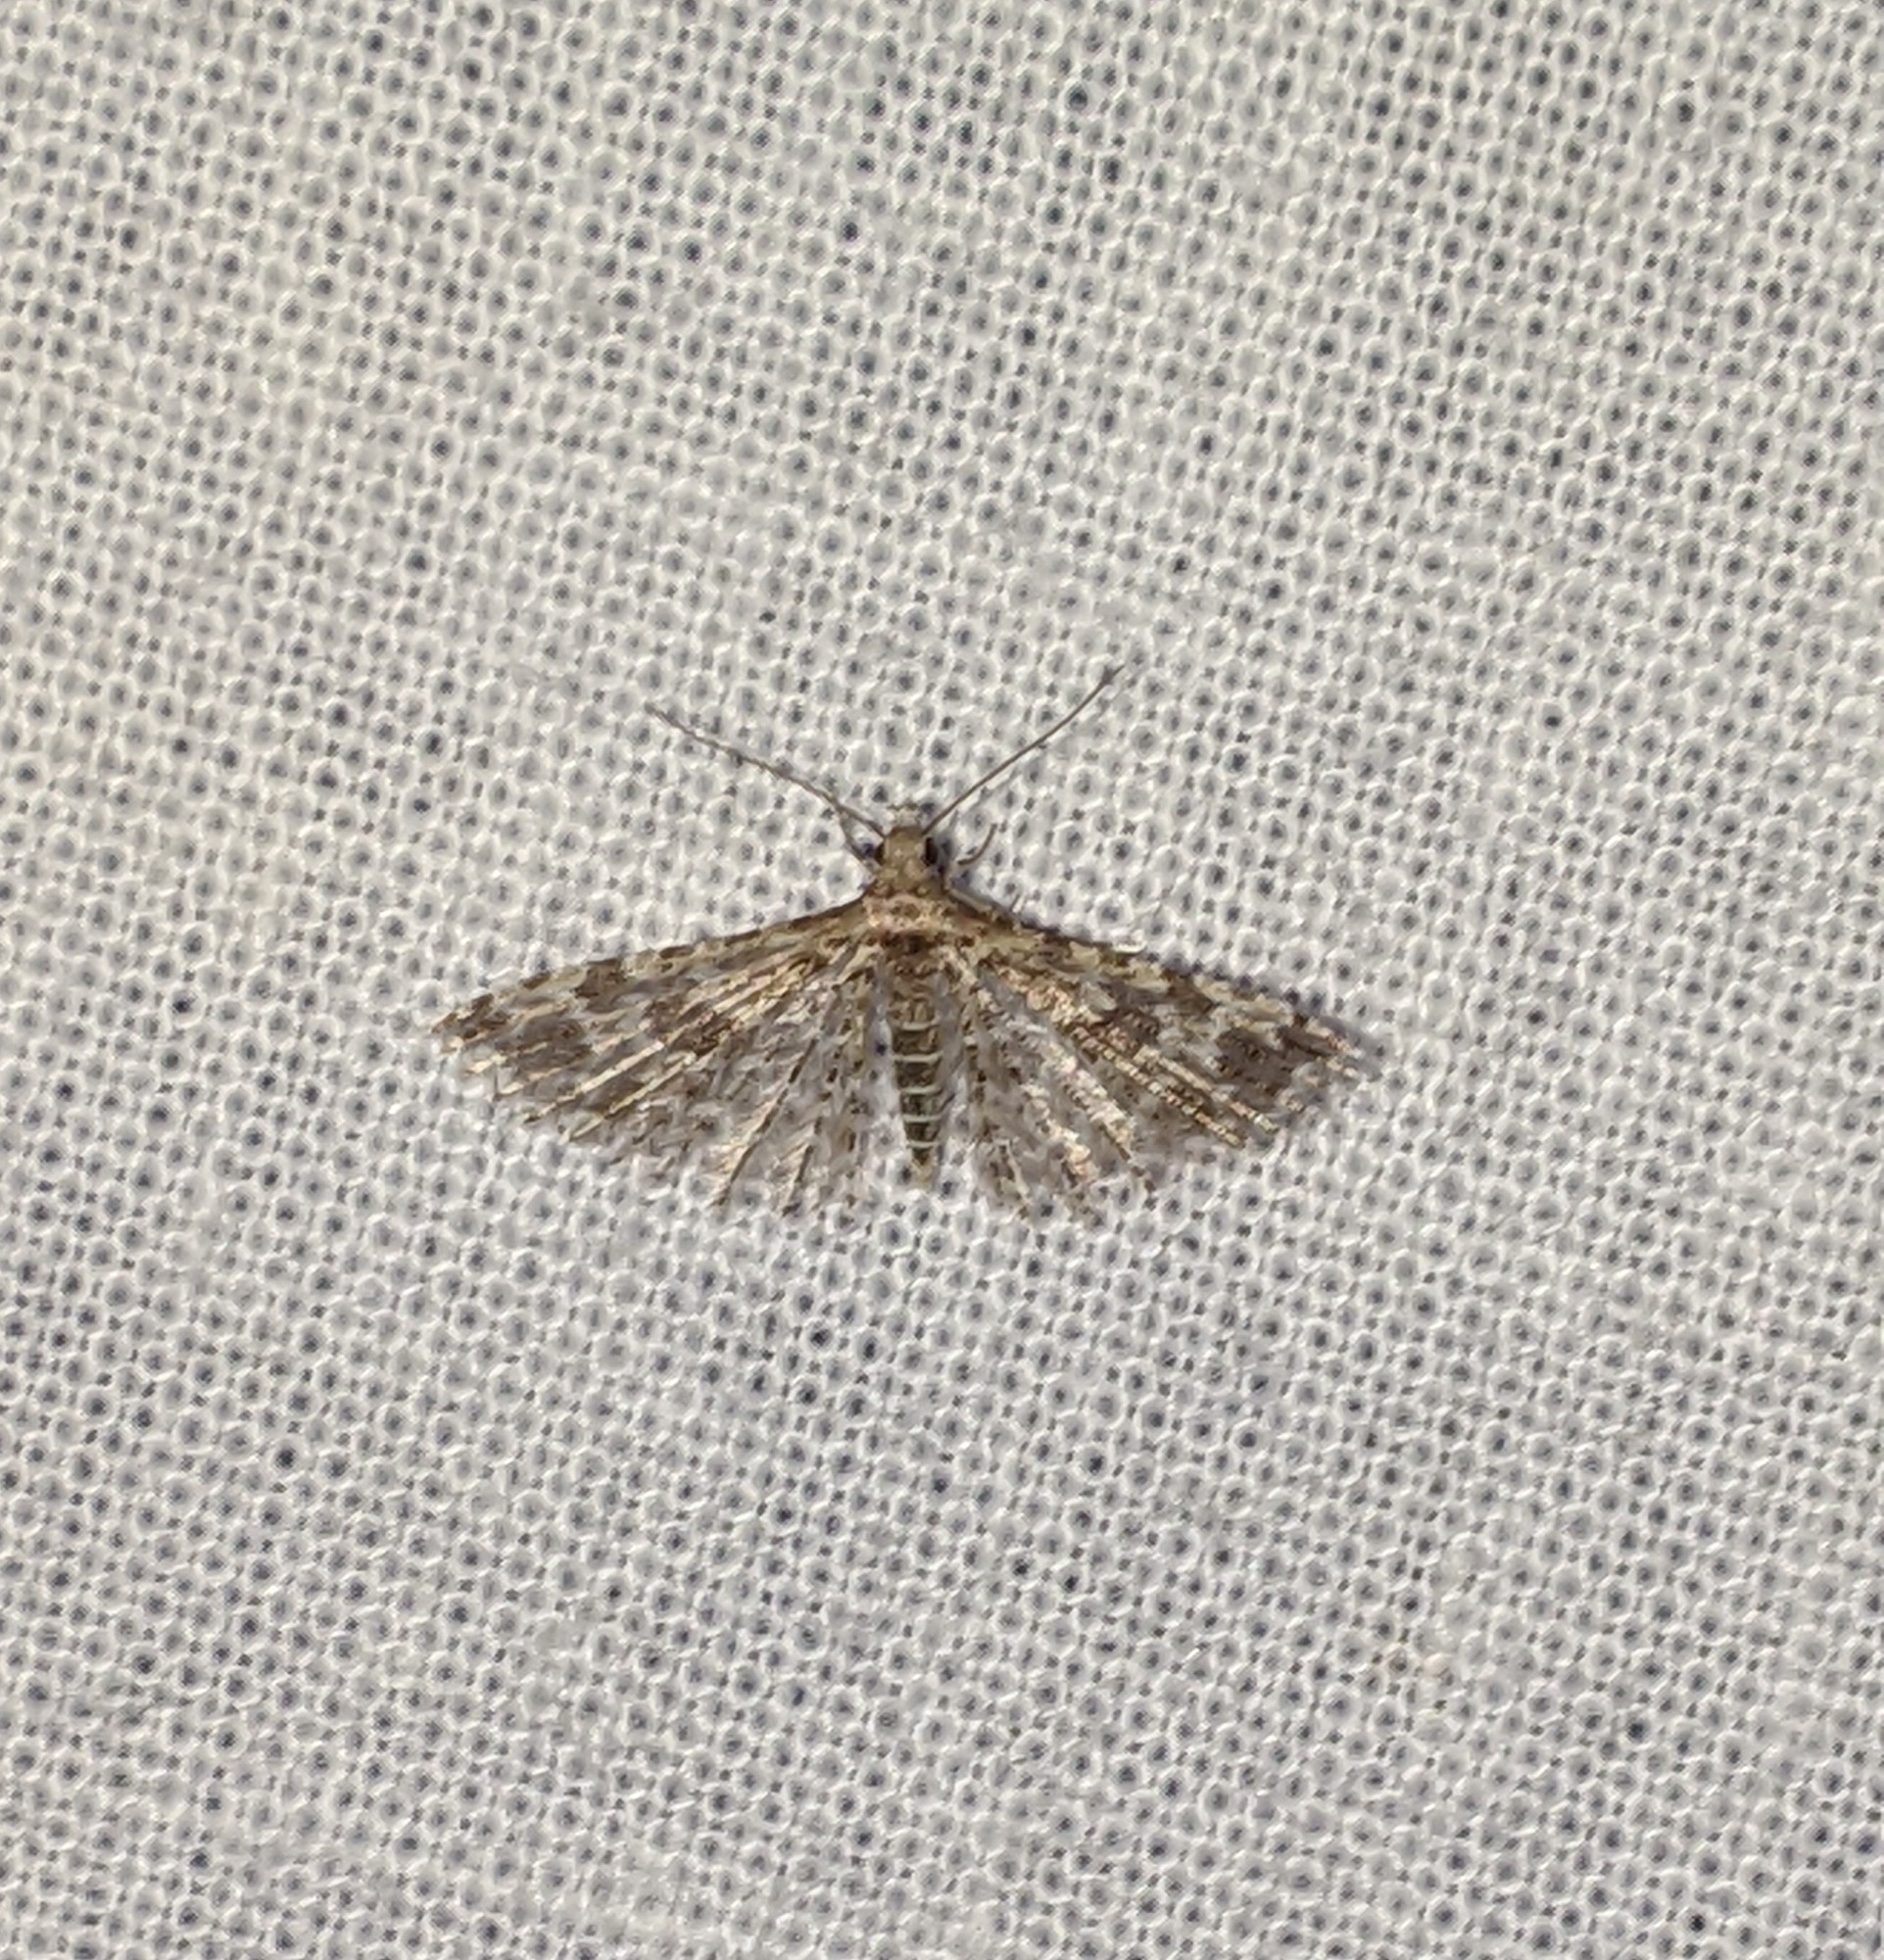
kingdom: Animalia
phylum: Arthropoda
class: Insecta
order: Lepidoptera
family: Alucitidae
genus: Alucita
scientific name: Alucita montana
